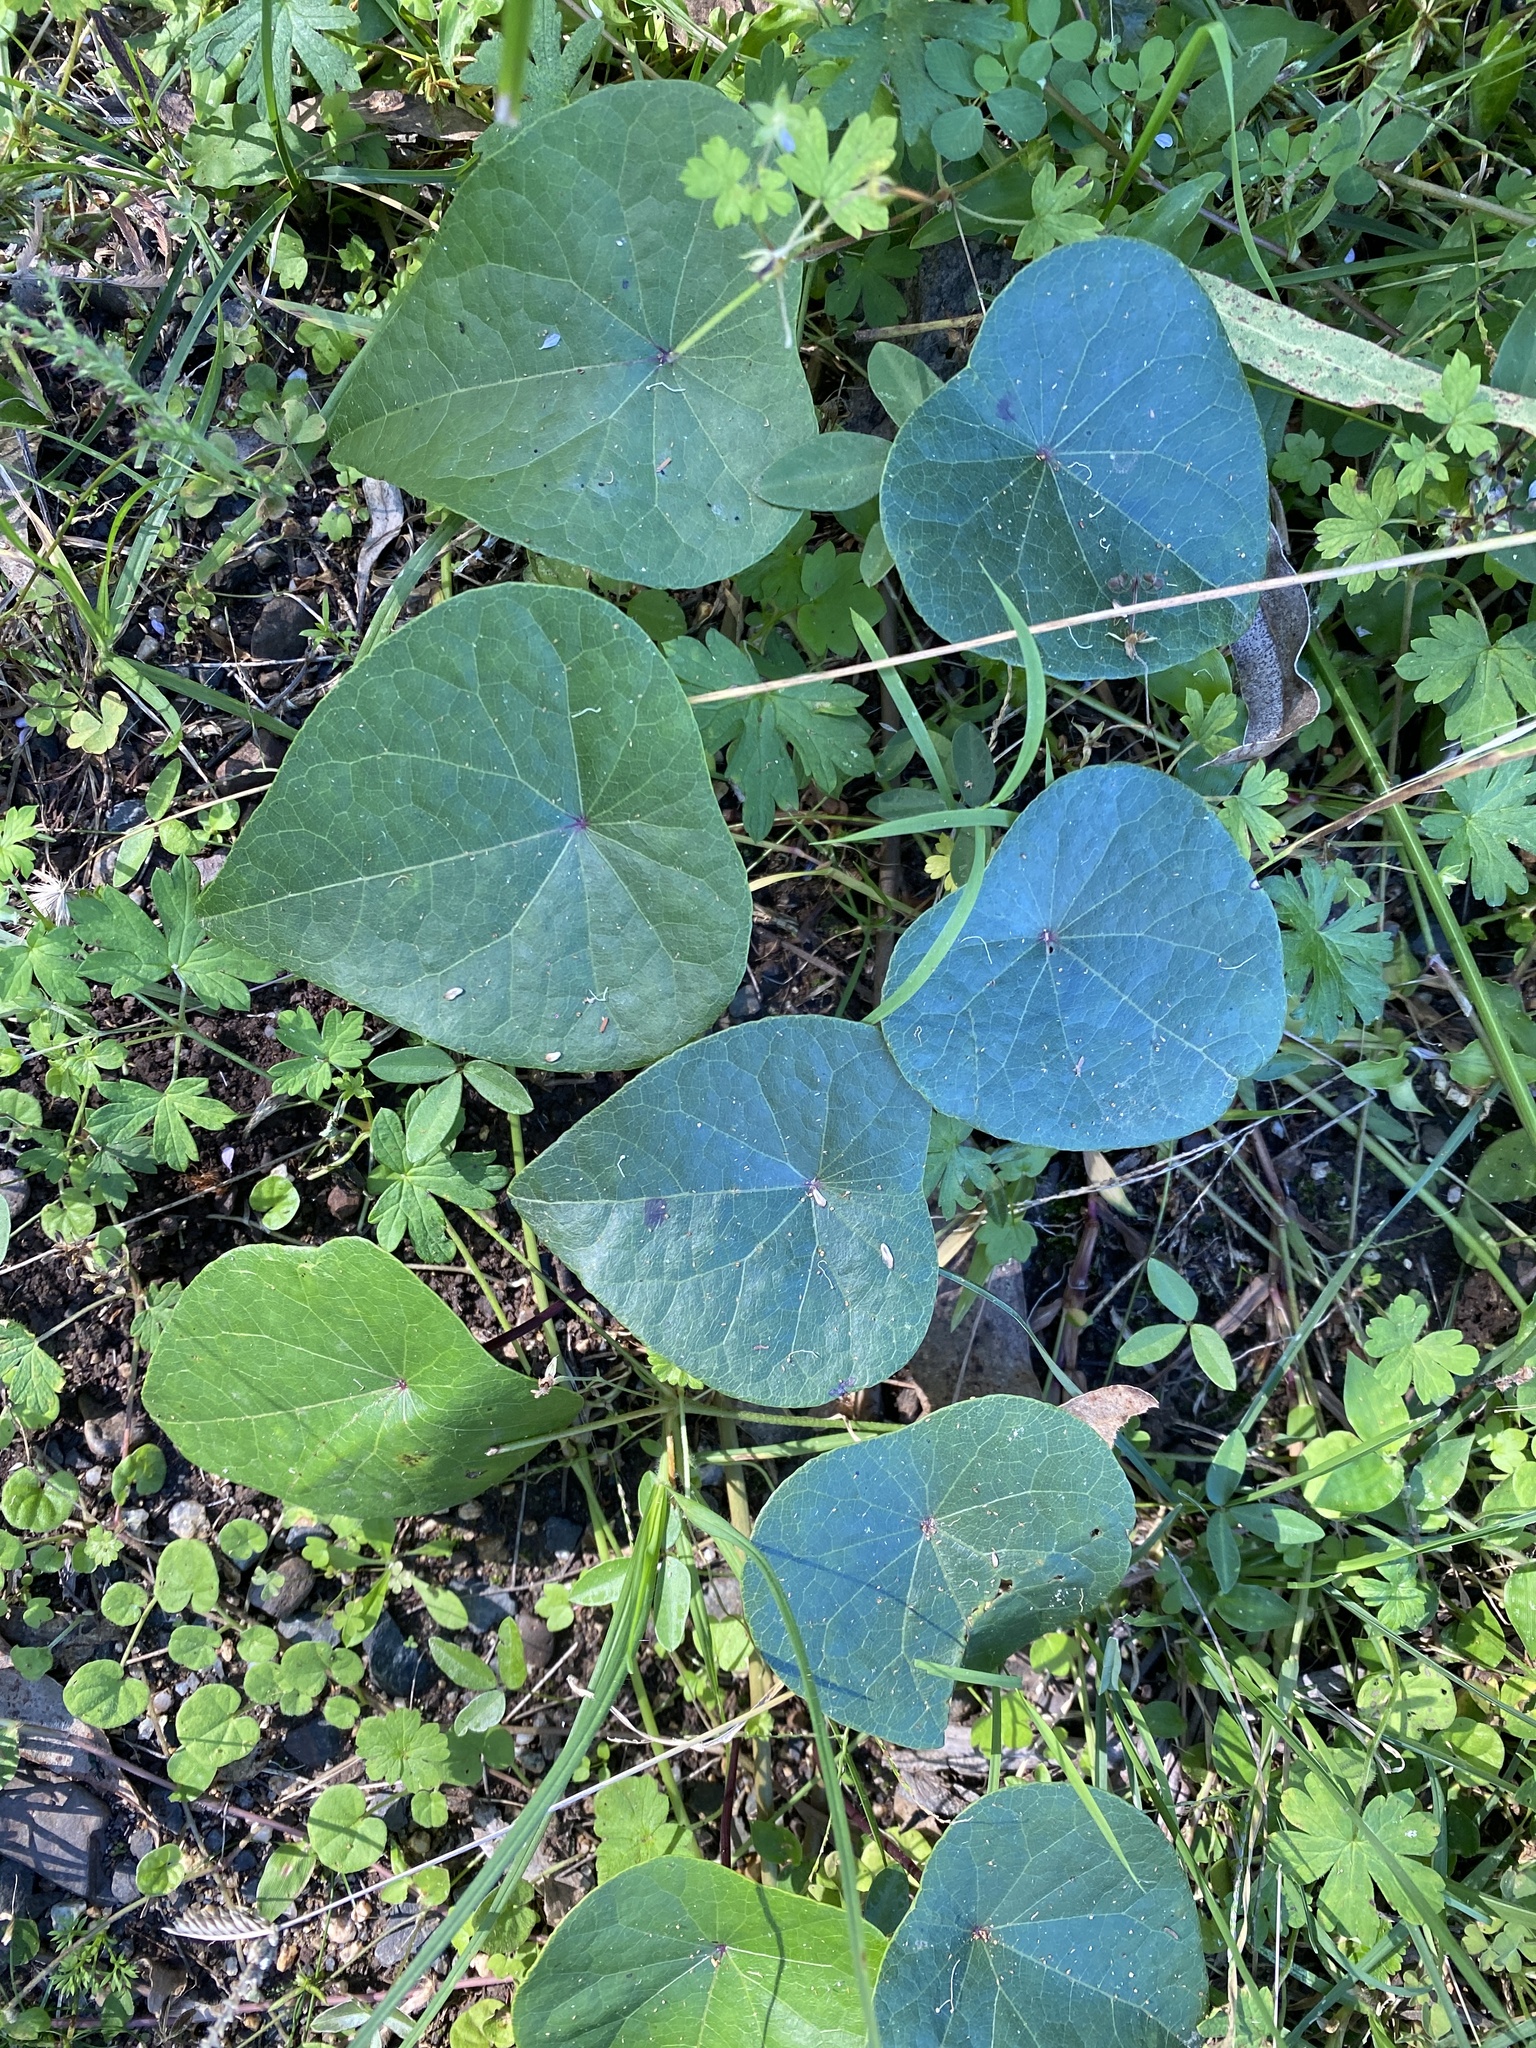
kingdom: Plantae
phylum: Tracheophyta
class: Magnoliopsida
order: Ranunculales
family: Menispermaceae
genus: Stephania
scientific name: Stephania japonica
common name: Snake vine
